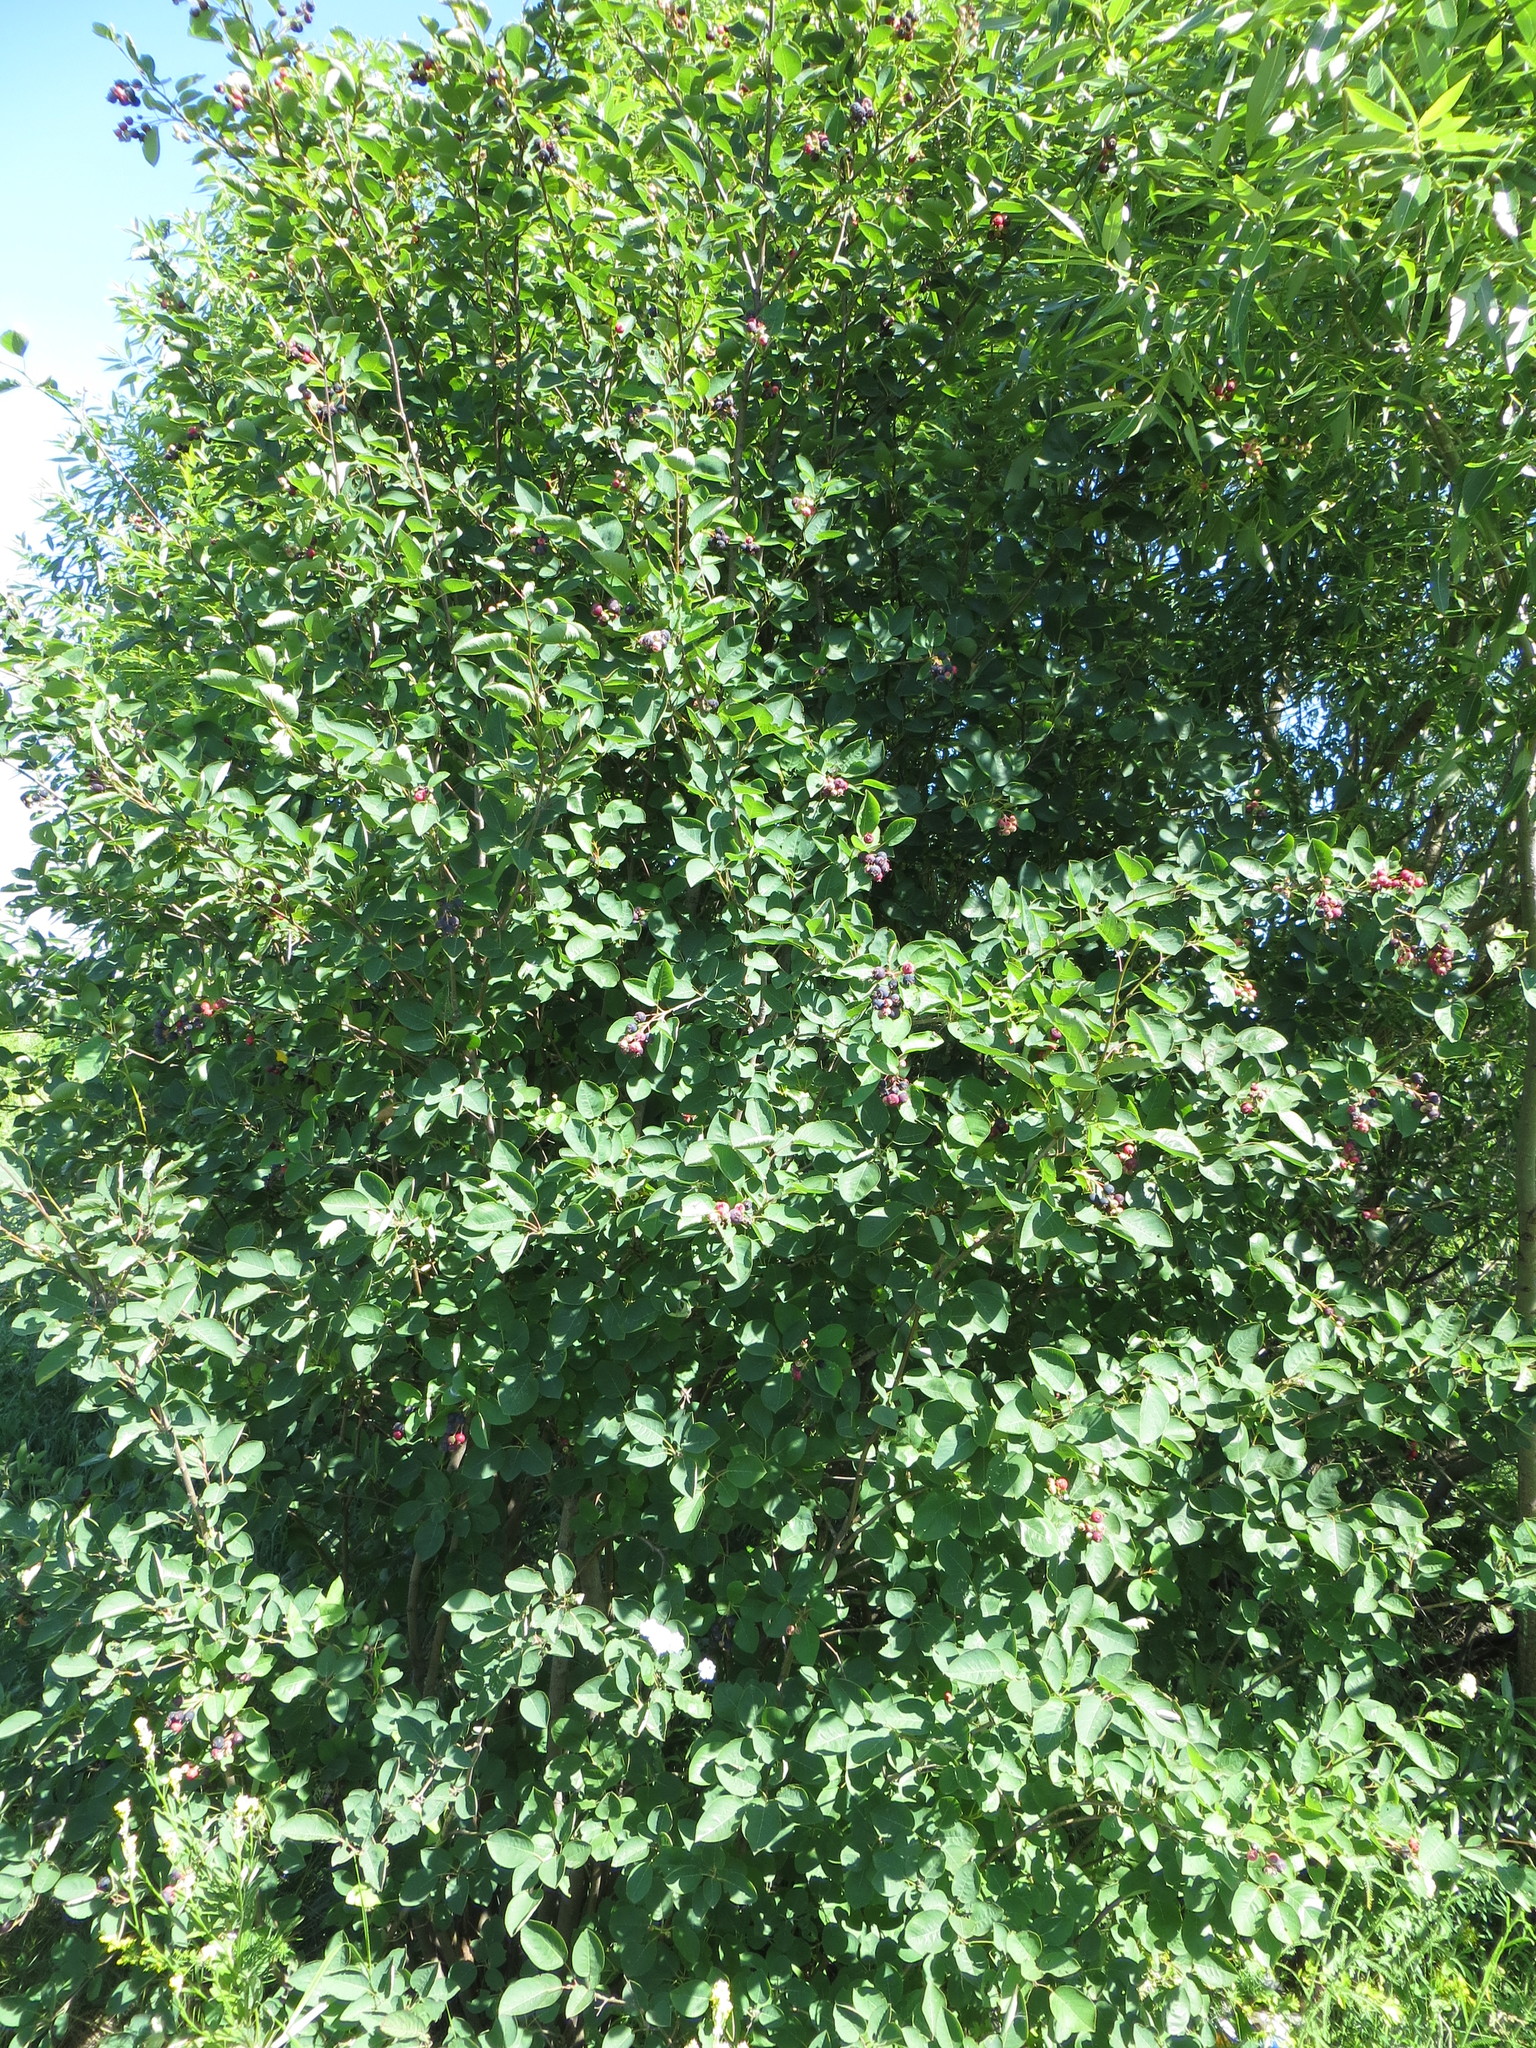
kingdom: Plantae
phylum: Tracheophyta
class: Magnoliopsida
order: Rosales
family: Rosaceae
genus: Amelanchier
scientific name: Amelanchier
